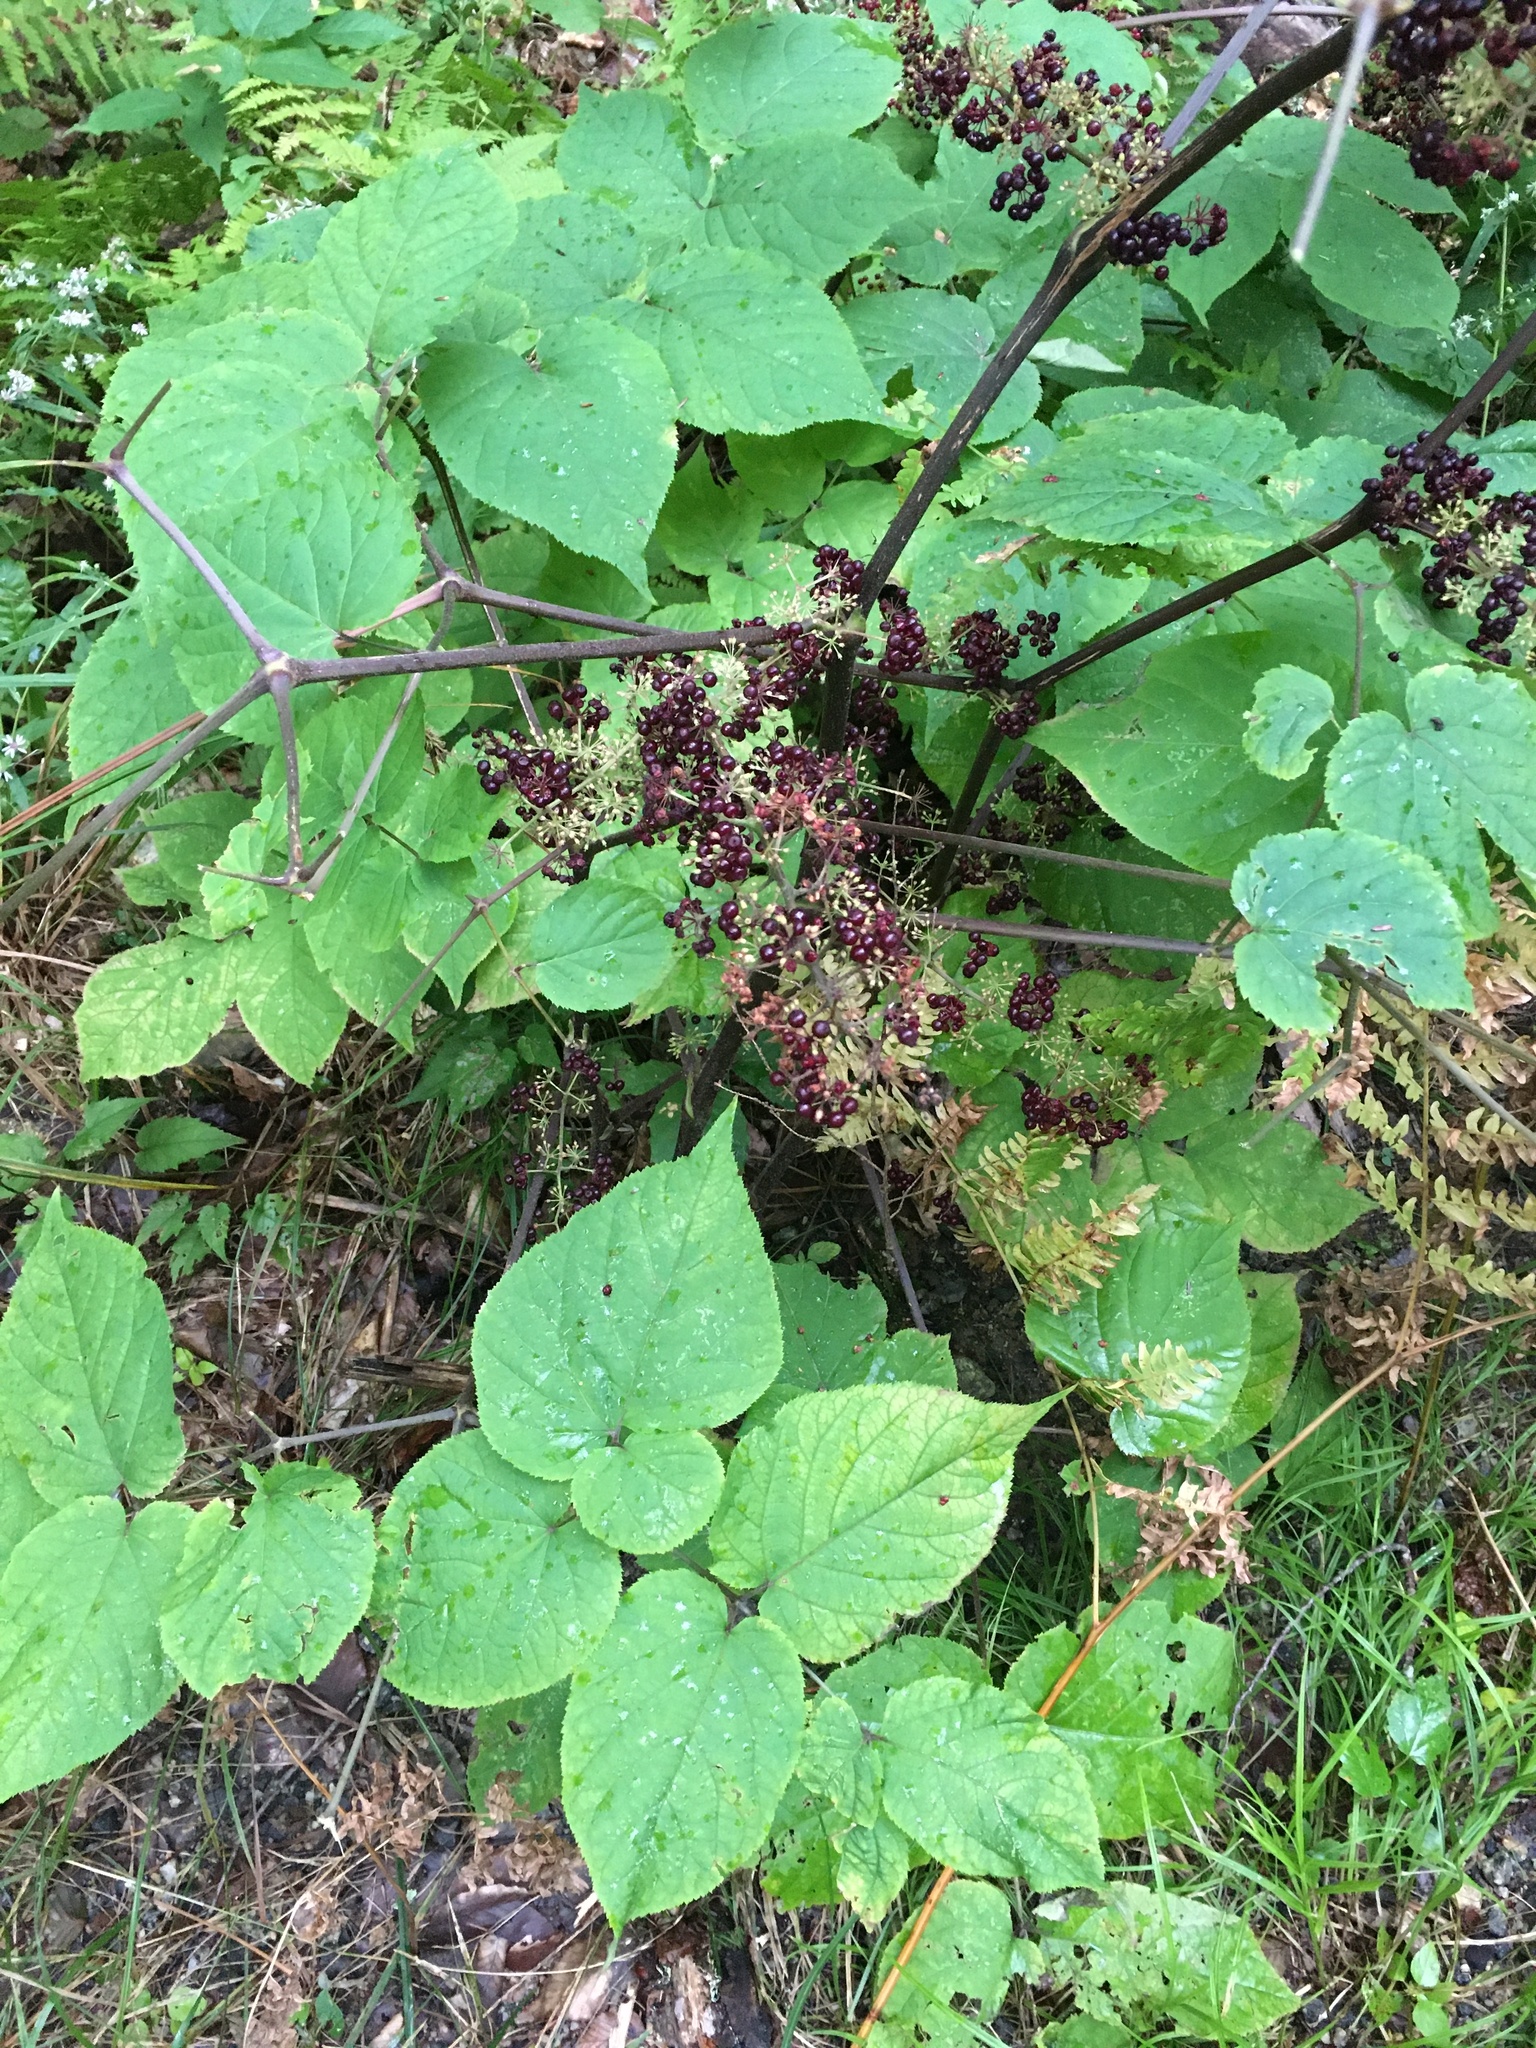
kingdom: Plantae
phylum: Tracheophyta
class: Magnoliopsida
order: Apiales
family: Araliaceae
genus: Aralia
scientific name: Aralia racemosa
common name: American-spikenard
